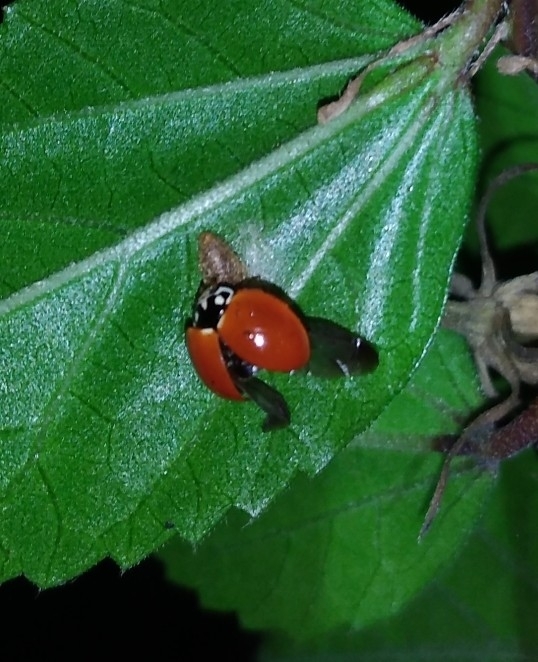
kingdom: Animalia
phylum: Arthropoda
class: Insecta
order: Coleoptera
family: Coccinellidae
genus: Cycloneda
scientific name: Cycloneda sanguinea
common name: Ladybird beetle
